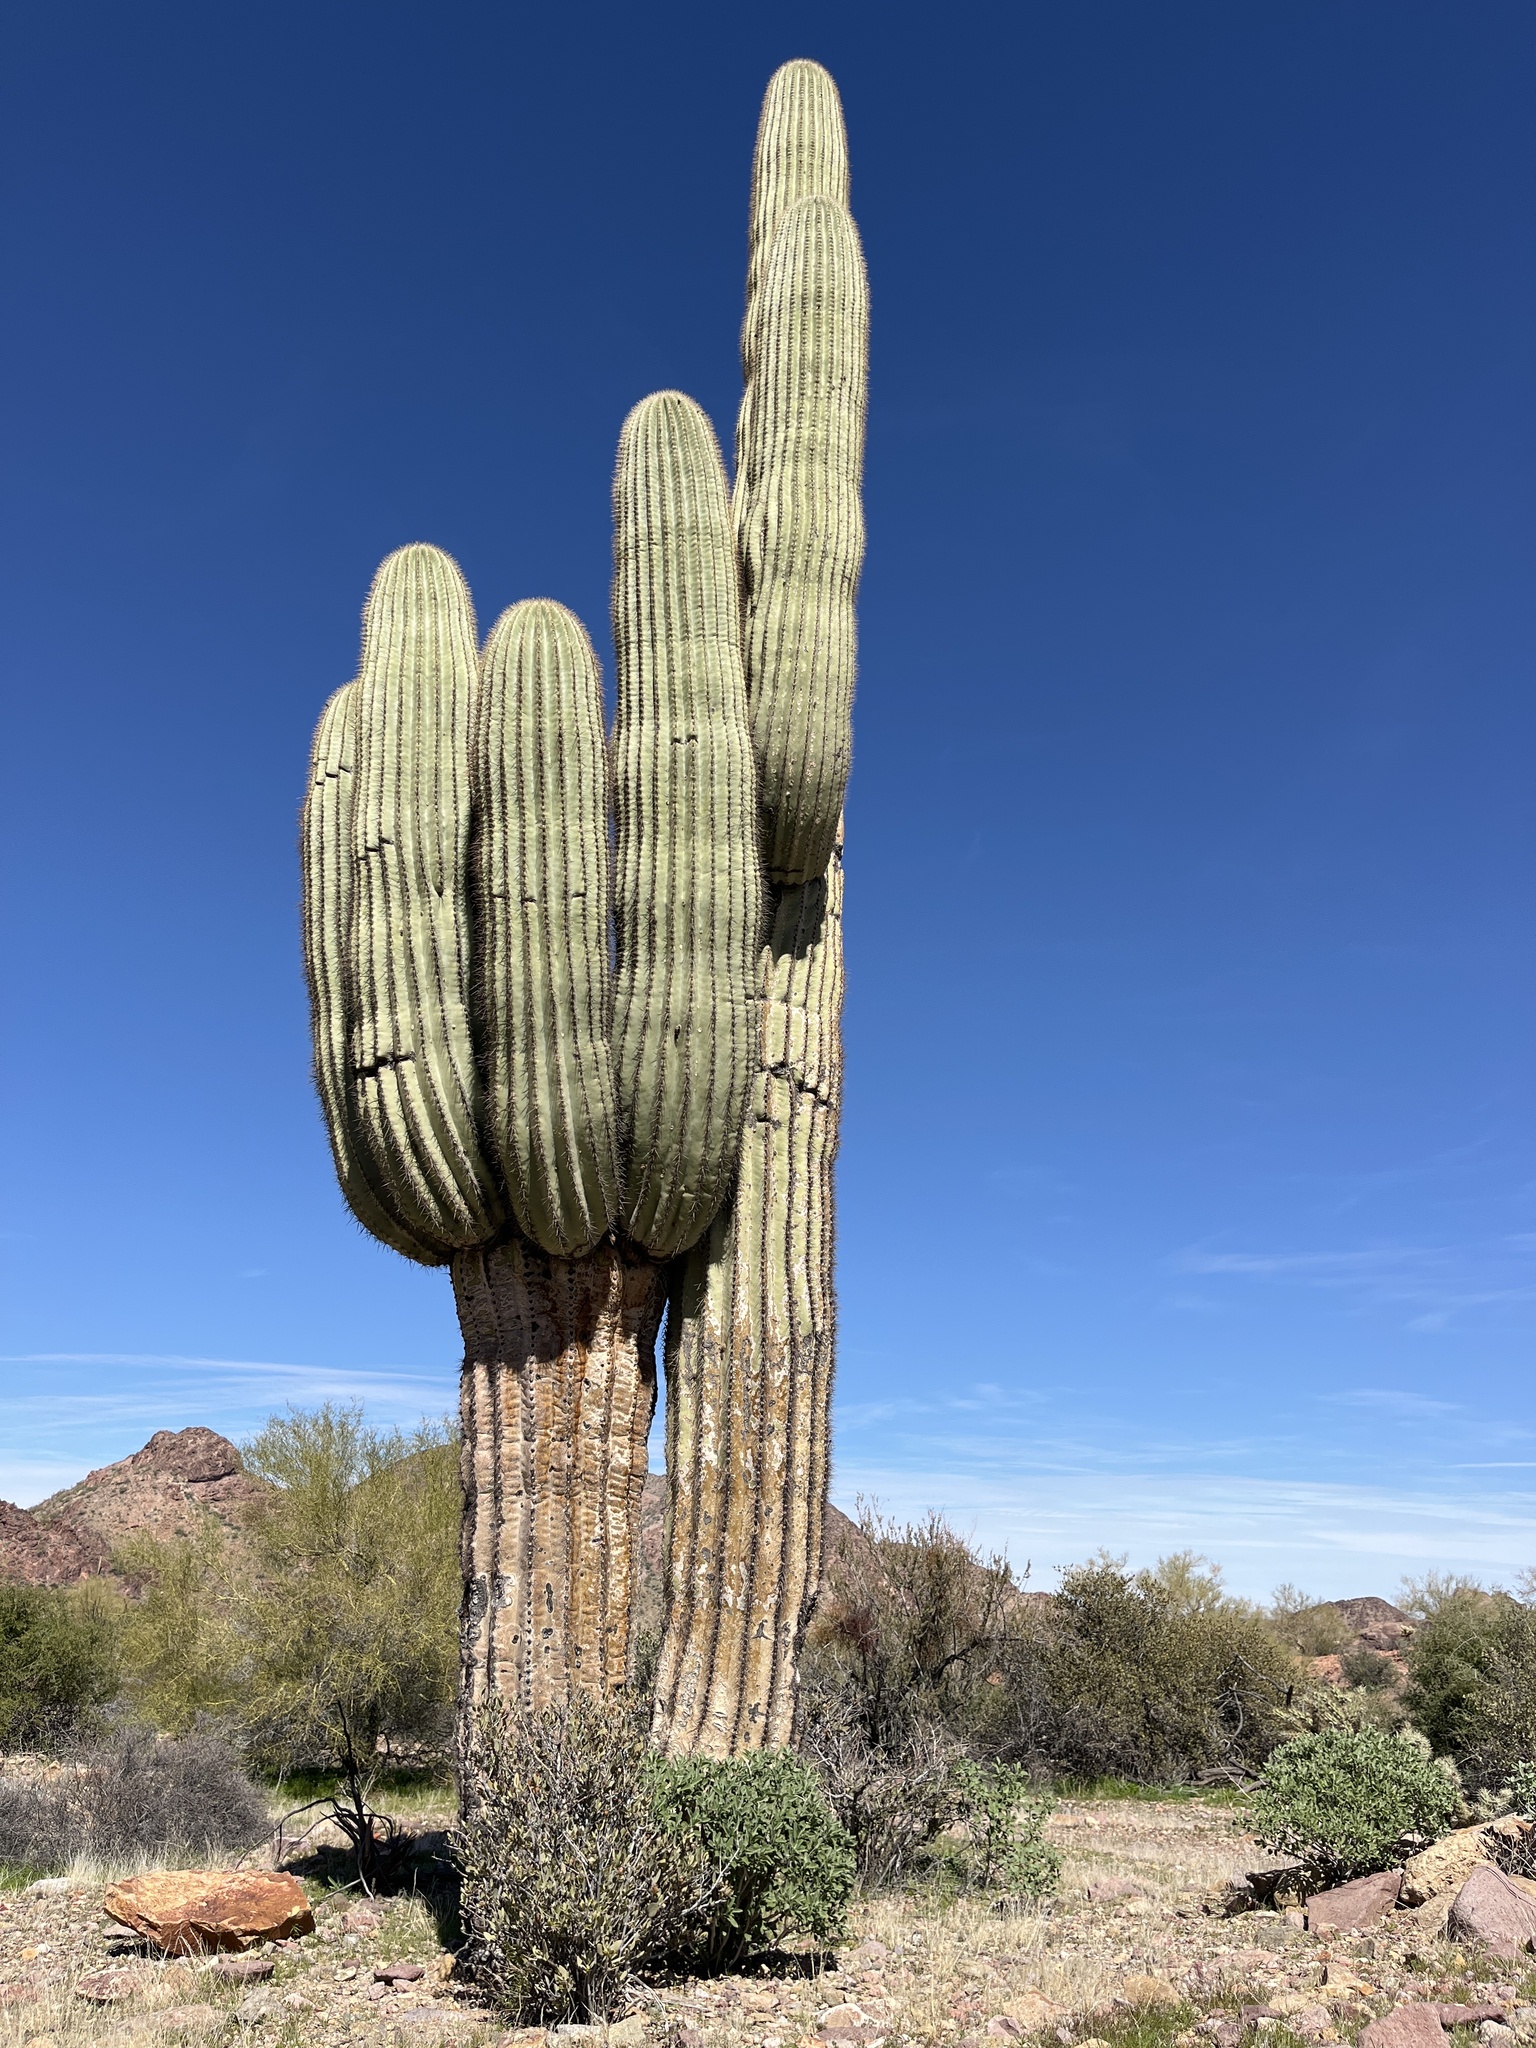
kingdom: Plantae
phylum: Tracheophyta
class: Magnoliopsida
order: Caryophyllales
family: Cactaceae
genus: Carnegiea
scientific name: Carnegiea gigantea
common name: Saguaro
